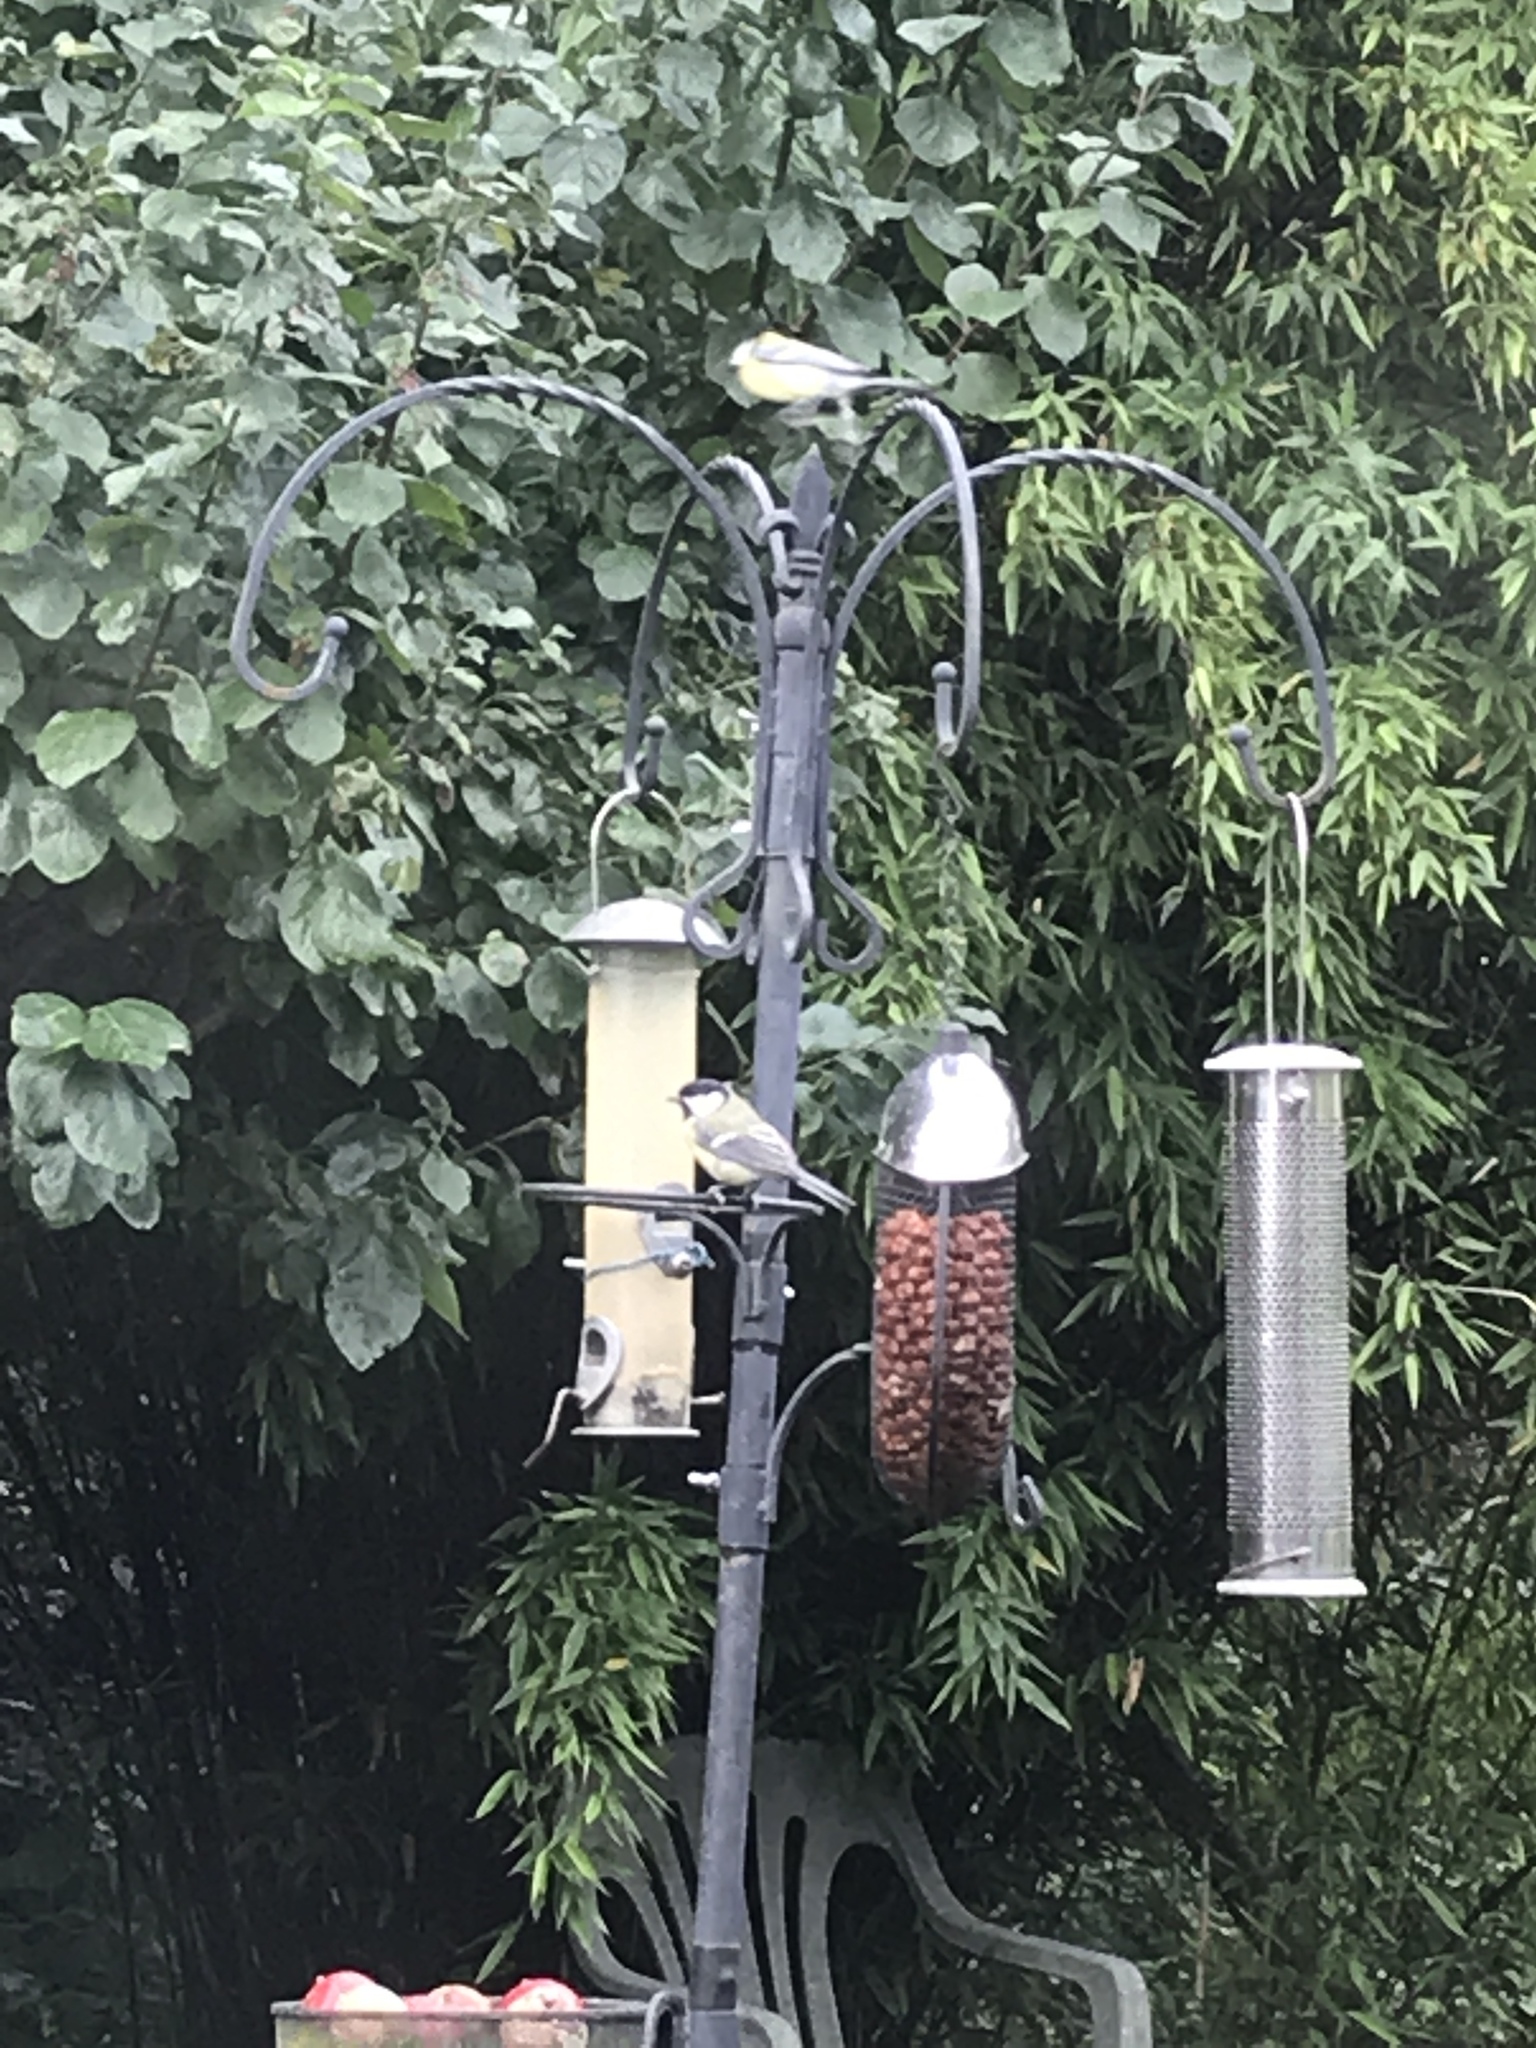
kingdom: Animalia
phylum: Chordata
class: Aves
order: Passeriformes
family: Paridae
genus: Parus
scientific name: Parus major
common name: Great tit
